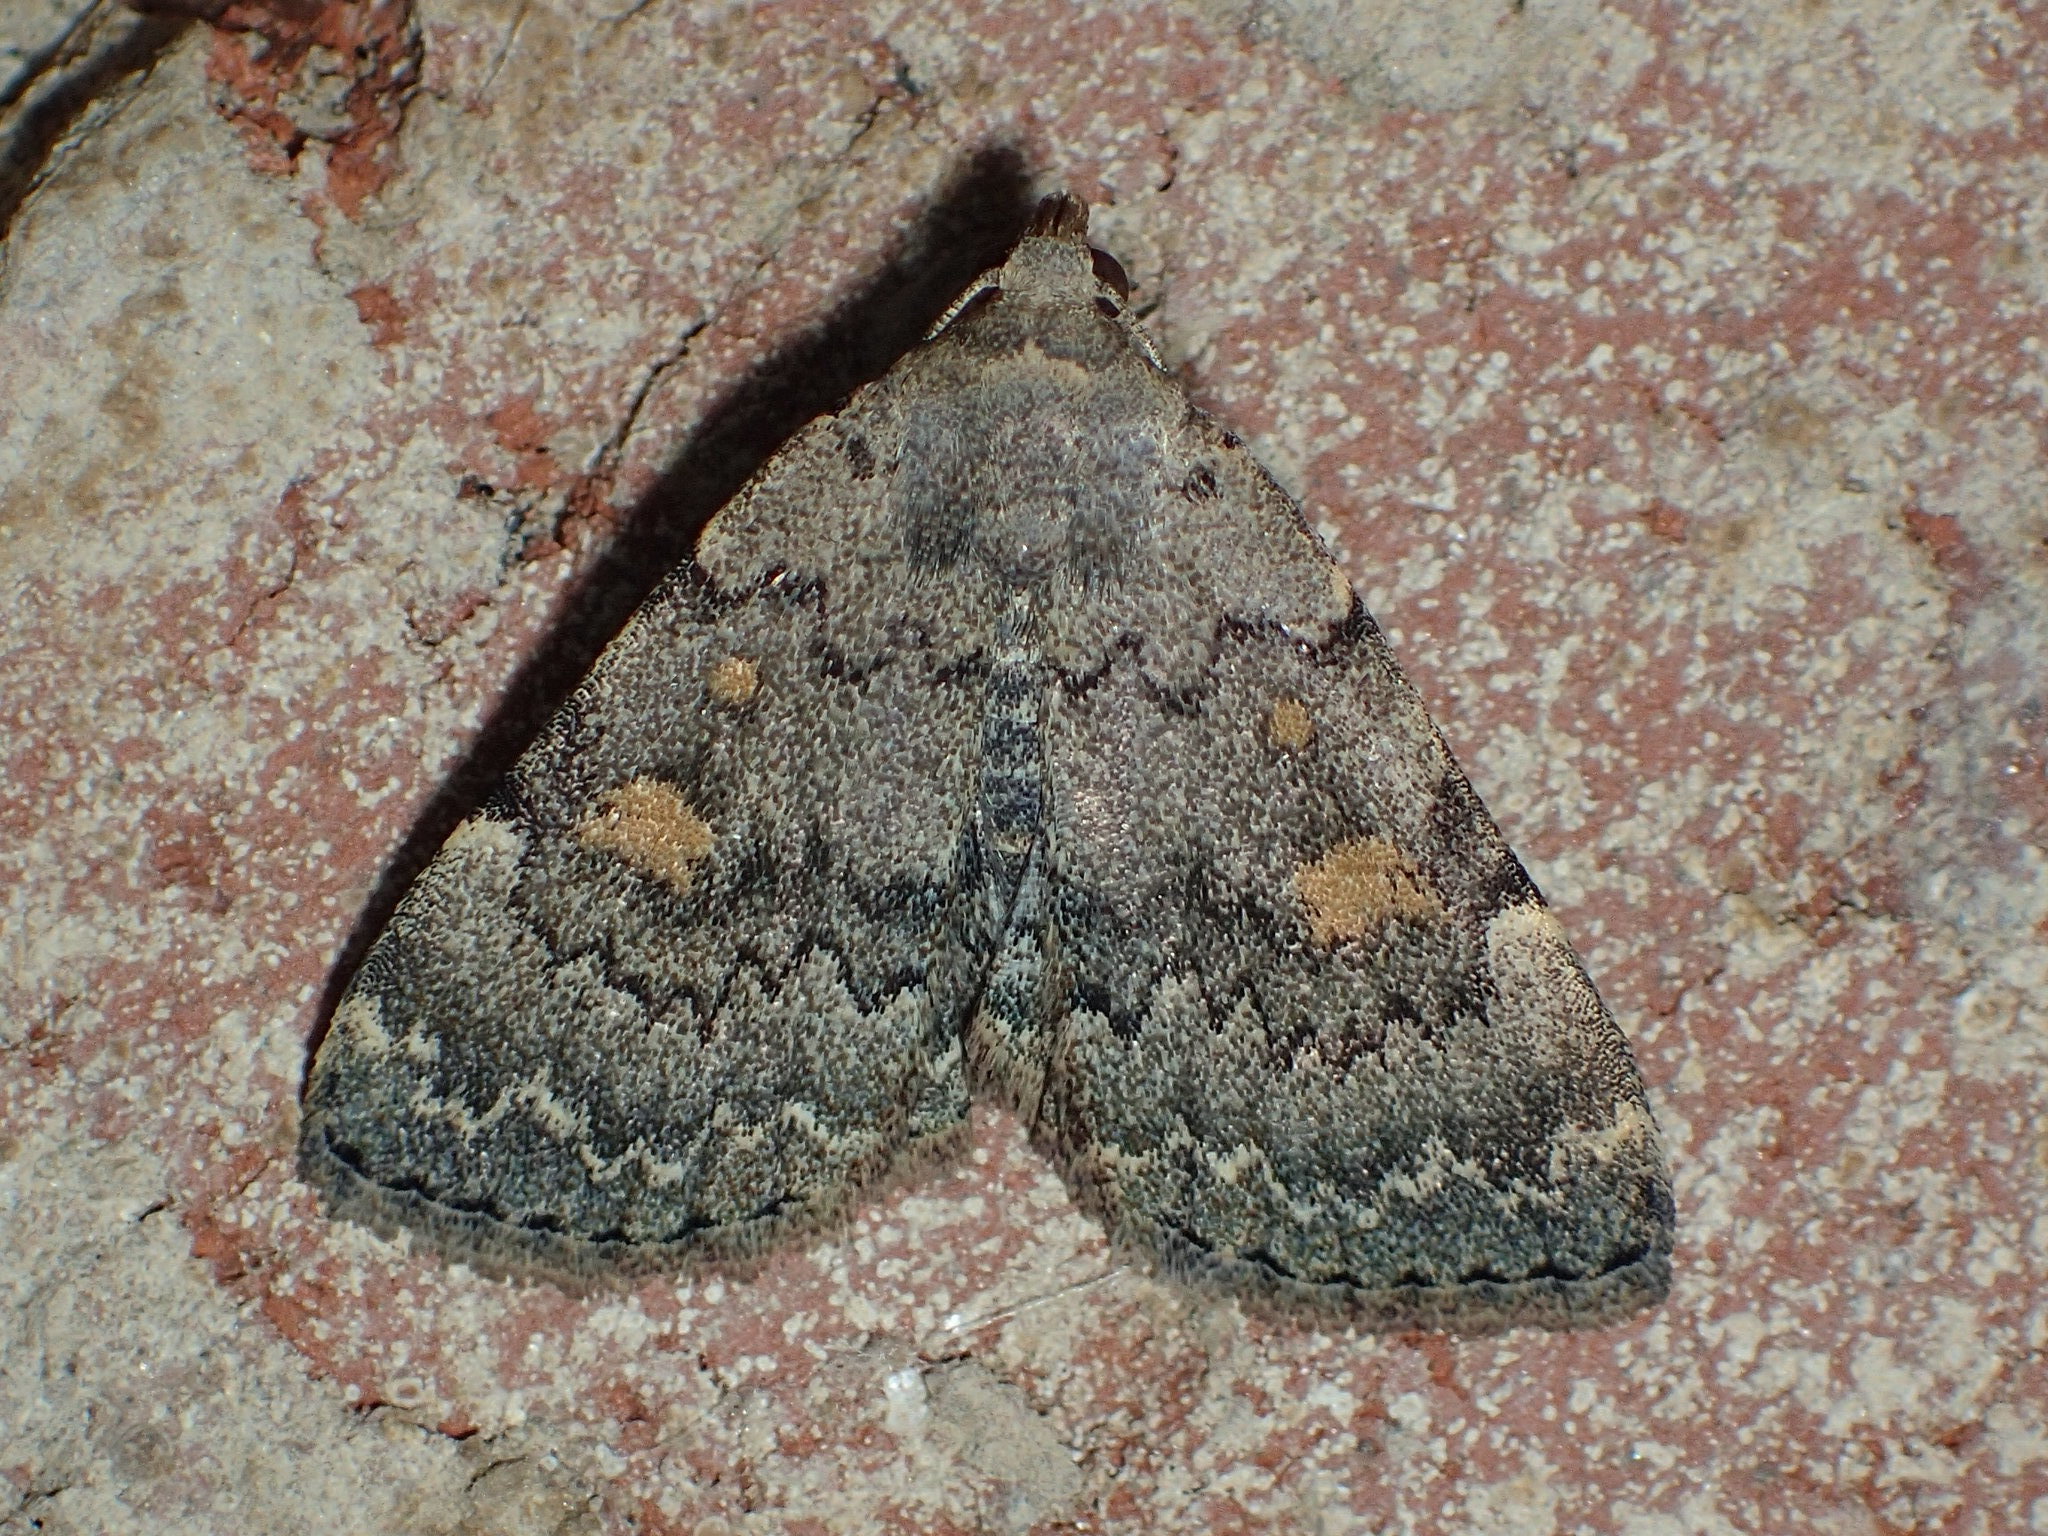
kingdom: Animalia
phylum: Arthropoda
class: Insecta
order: Lepidoptera
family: Erebidae
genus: Idia
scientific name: Idia aemula
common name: Common idia moth
